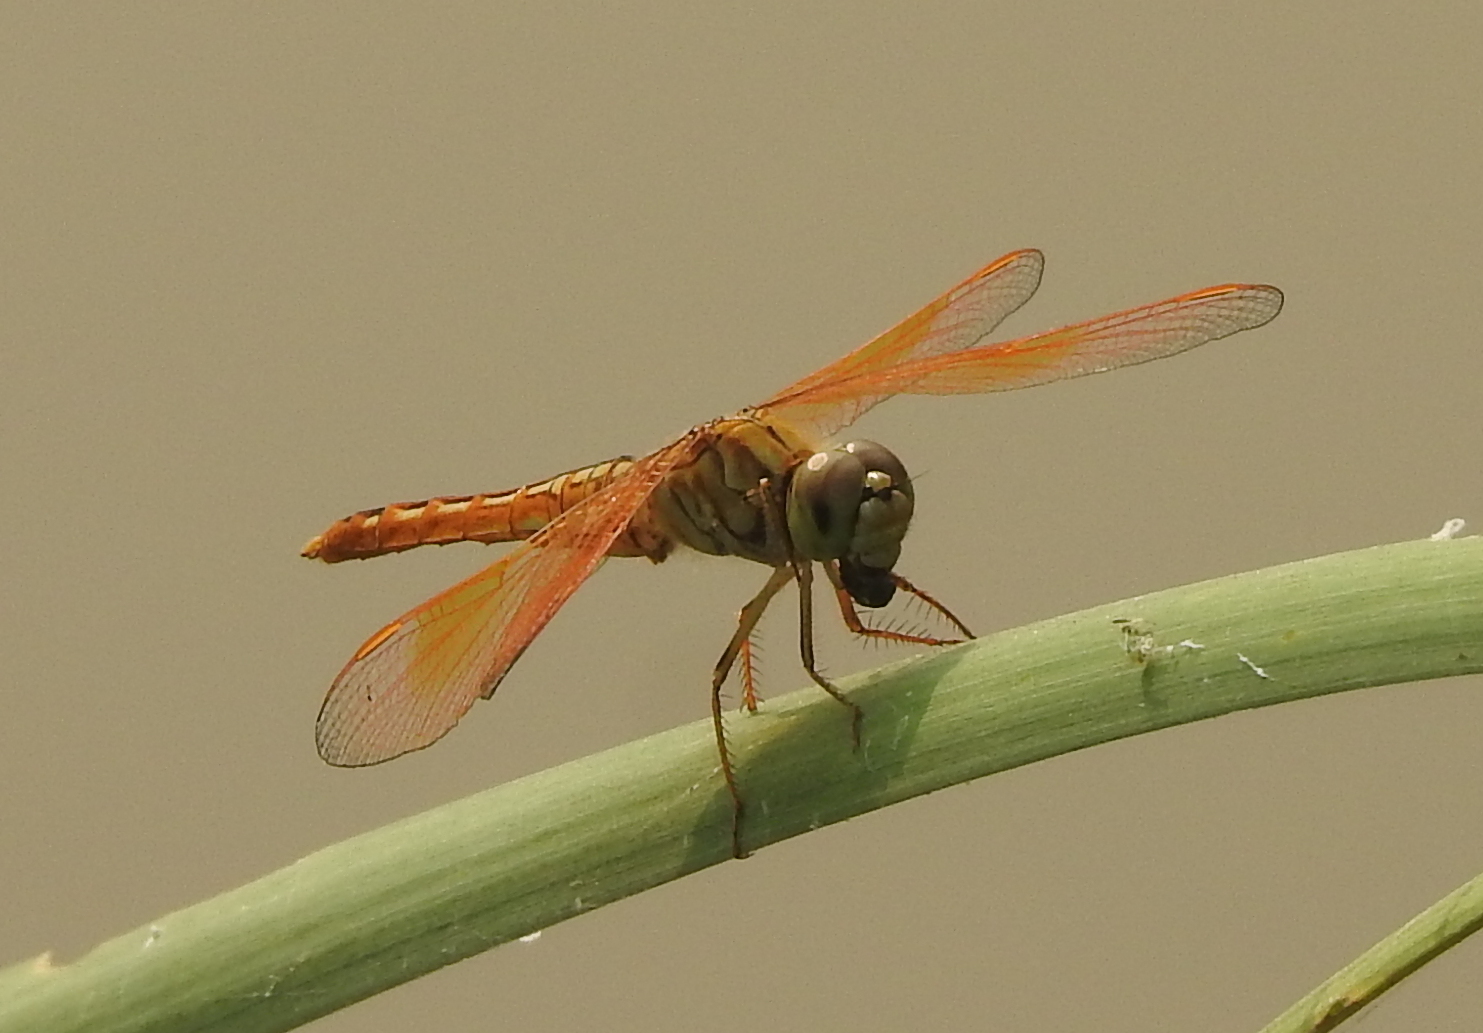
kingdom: Animalia
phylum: Arthropoda
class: Insecta
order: Odonata
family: Libellulidae
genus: Brachythemis
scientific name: Brachythemis contaminata
